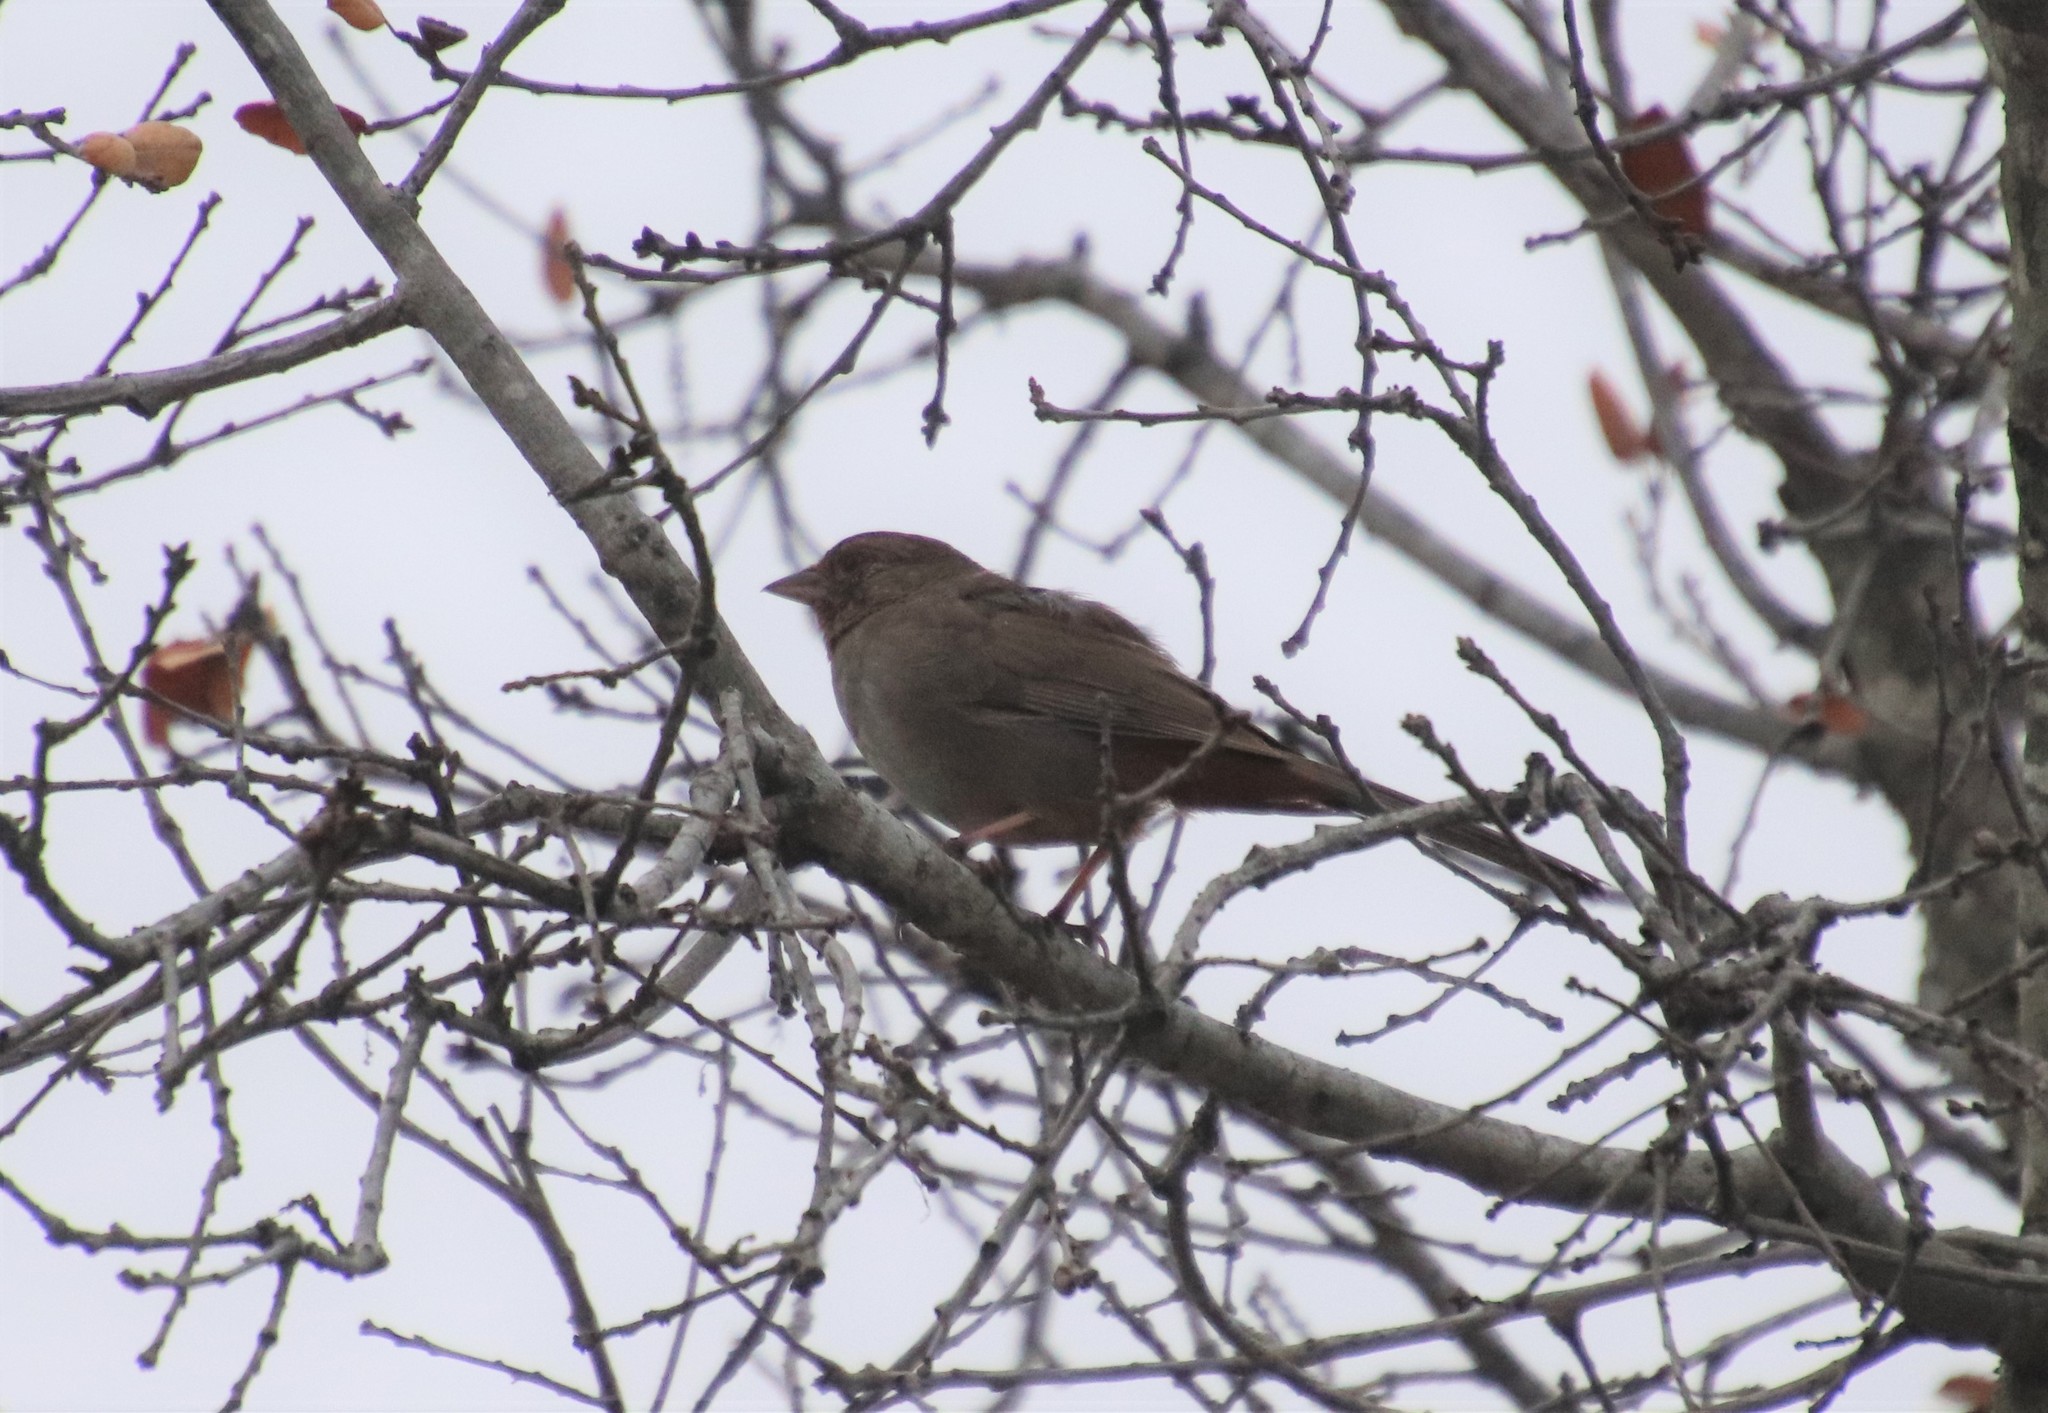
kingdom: Animalia
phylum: Chordata
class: Aves
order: Passeriformes
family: Passerellidae
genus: Melozone
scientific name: Melozone crissalis
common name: California towhee
